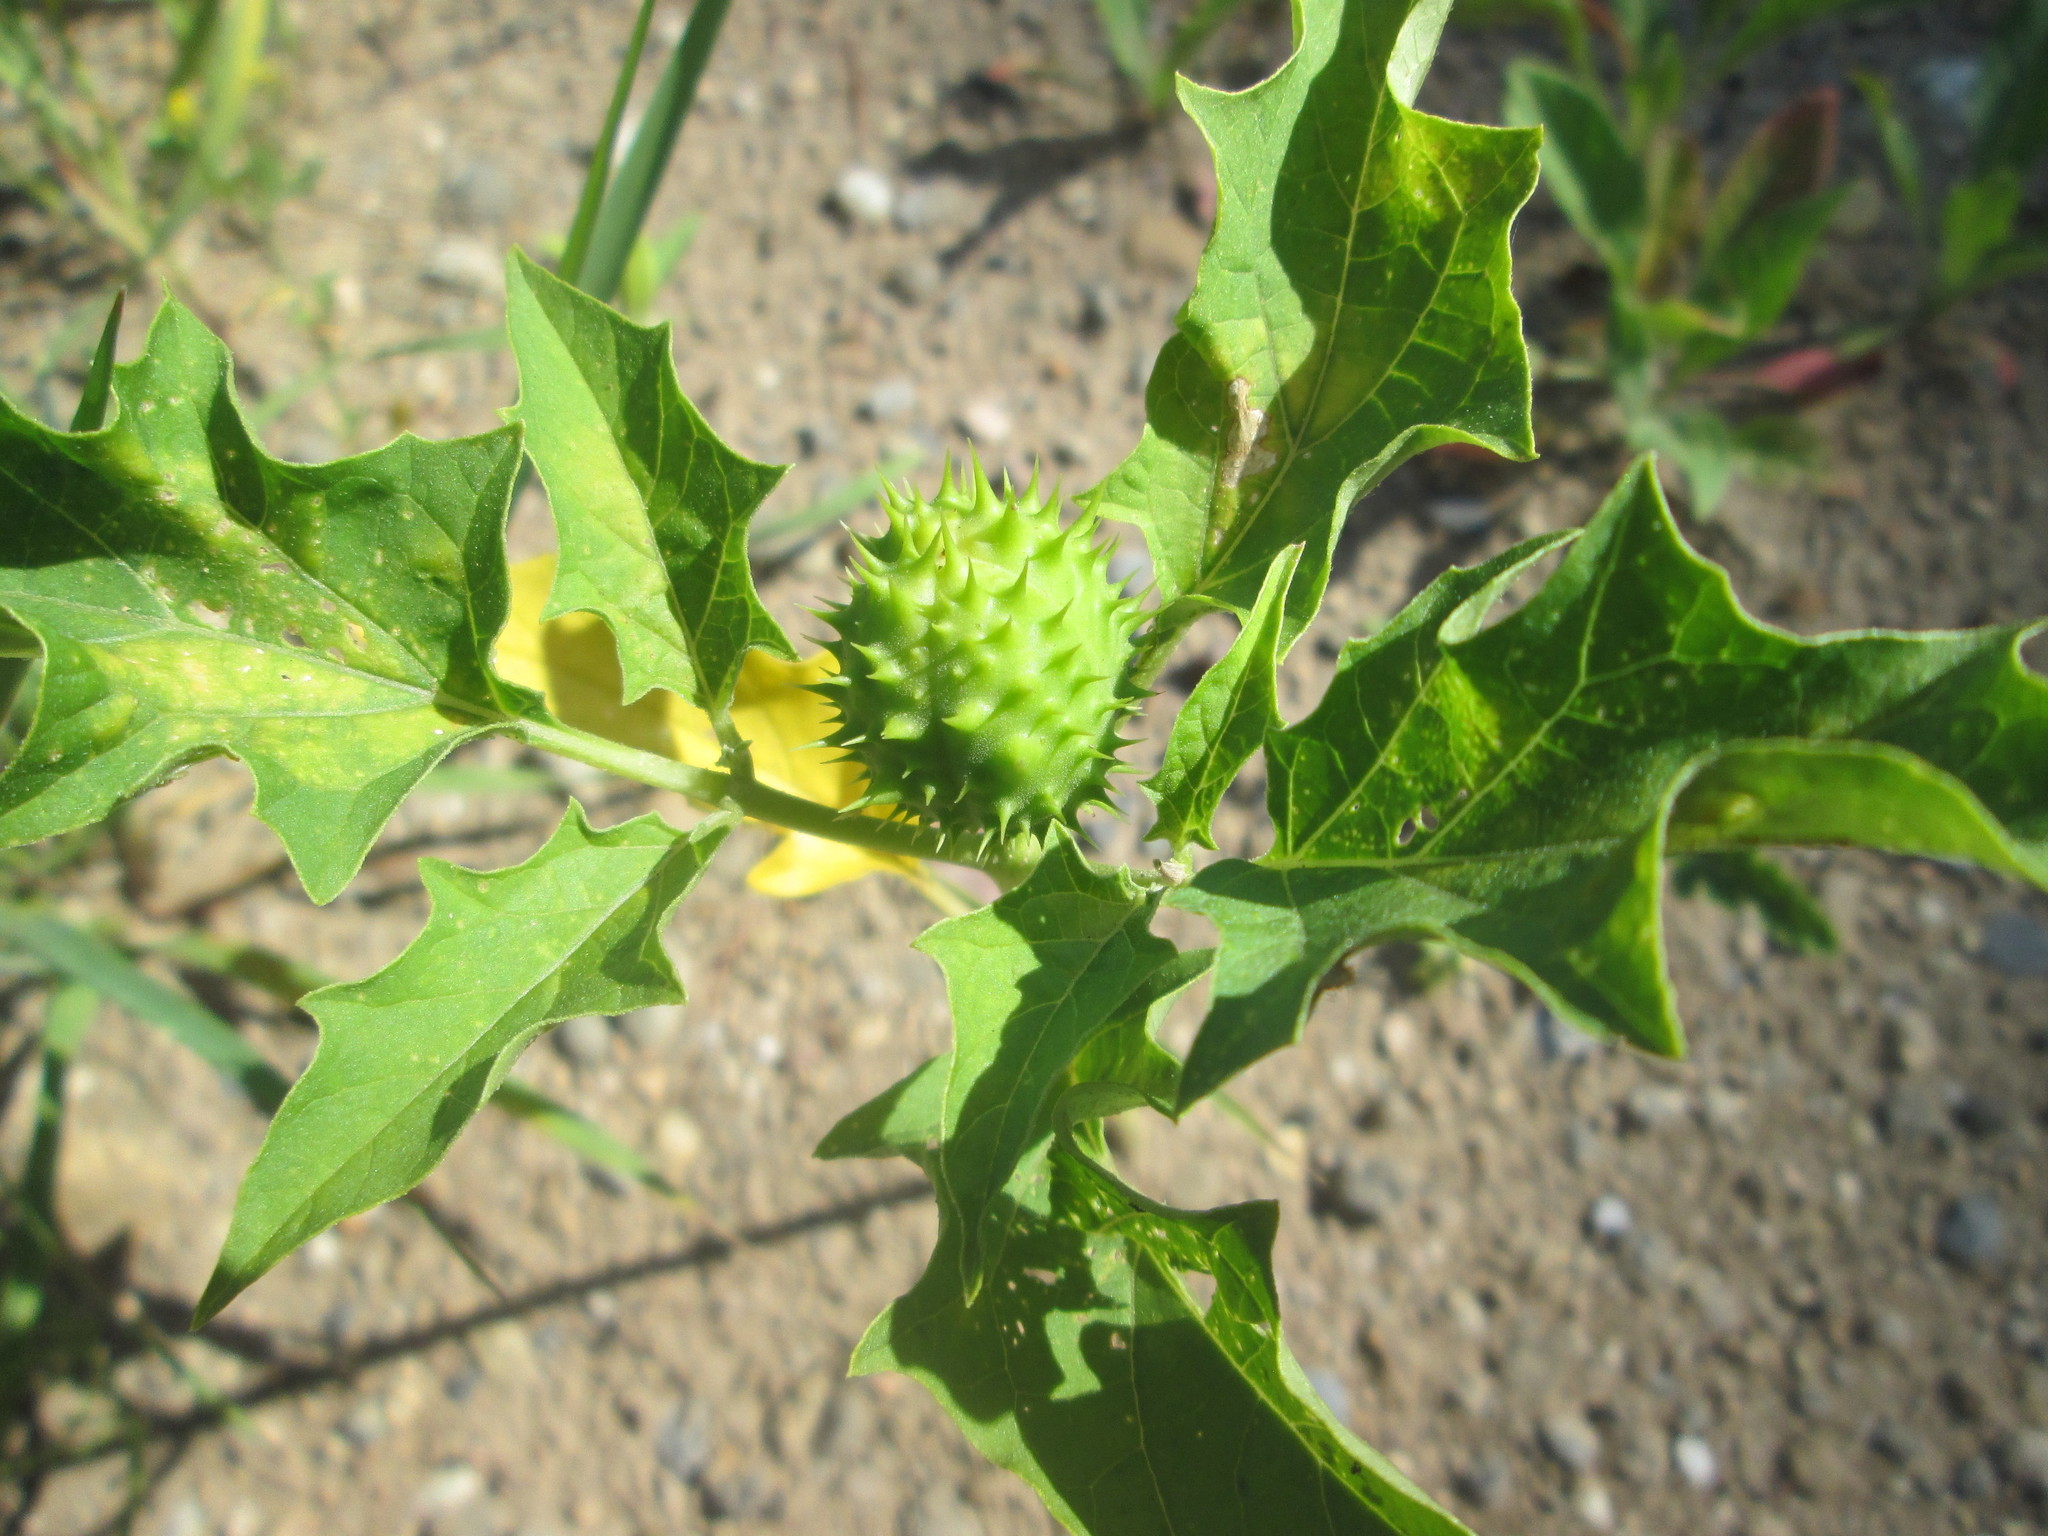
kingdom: Plantae
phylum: Tracheophyta
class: Magnoliopsida
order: Solanales
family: Solanaceae
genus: Datura
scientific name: Datura stramonium
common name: Thorn-apple
